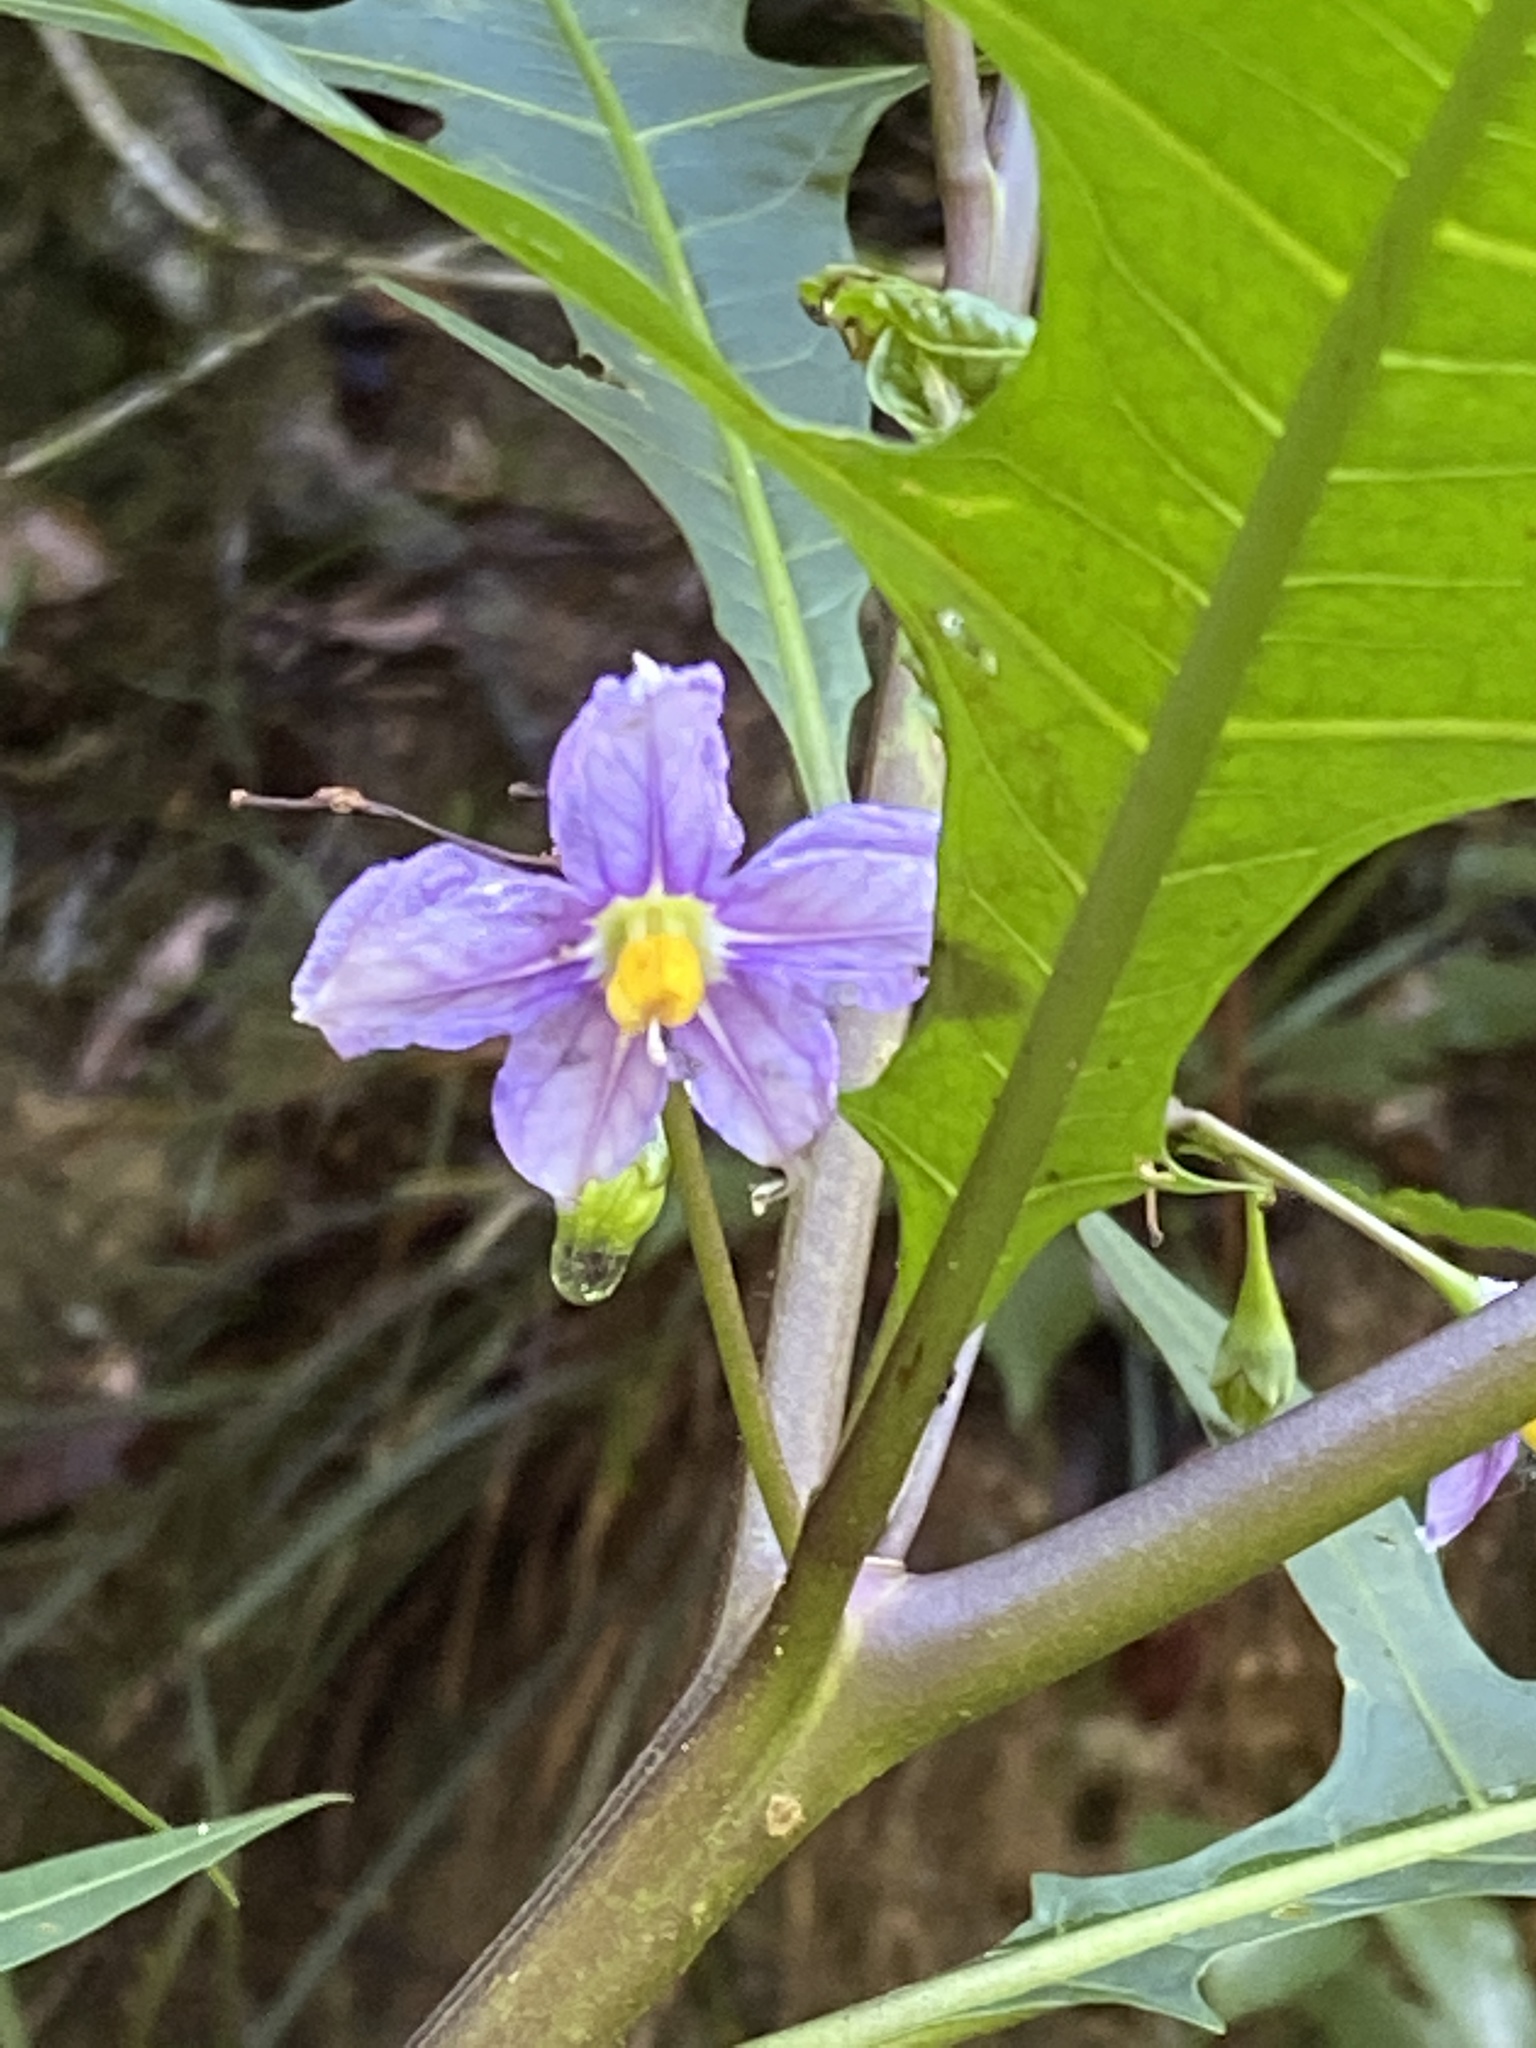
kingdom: Plantae
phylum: Tracheophyta
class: Magnoliopsida
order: Solanales
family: Solanaceae
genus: Solanum
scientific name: Solanum aviculare
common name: New zealand nightshade
